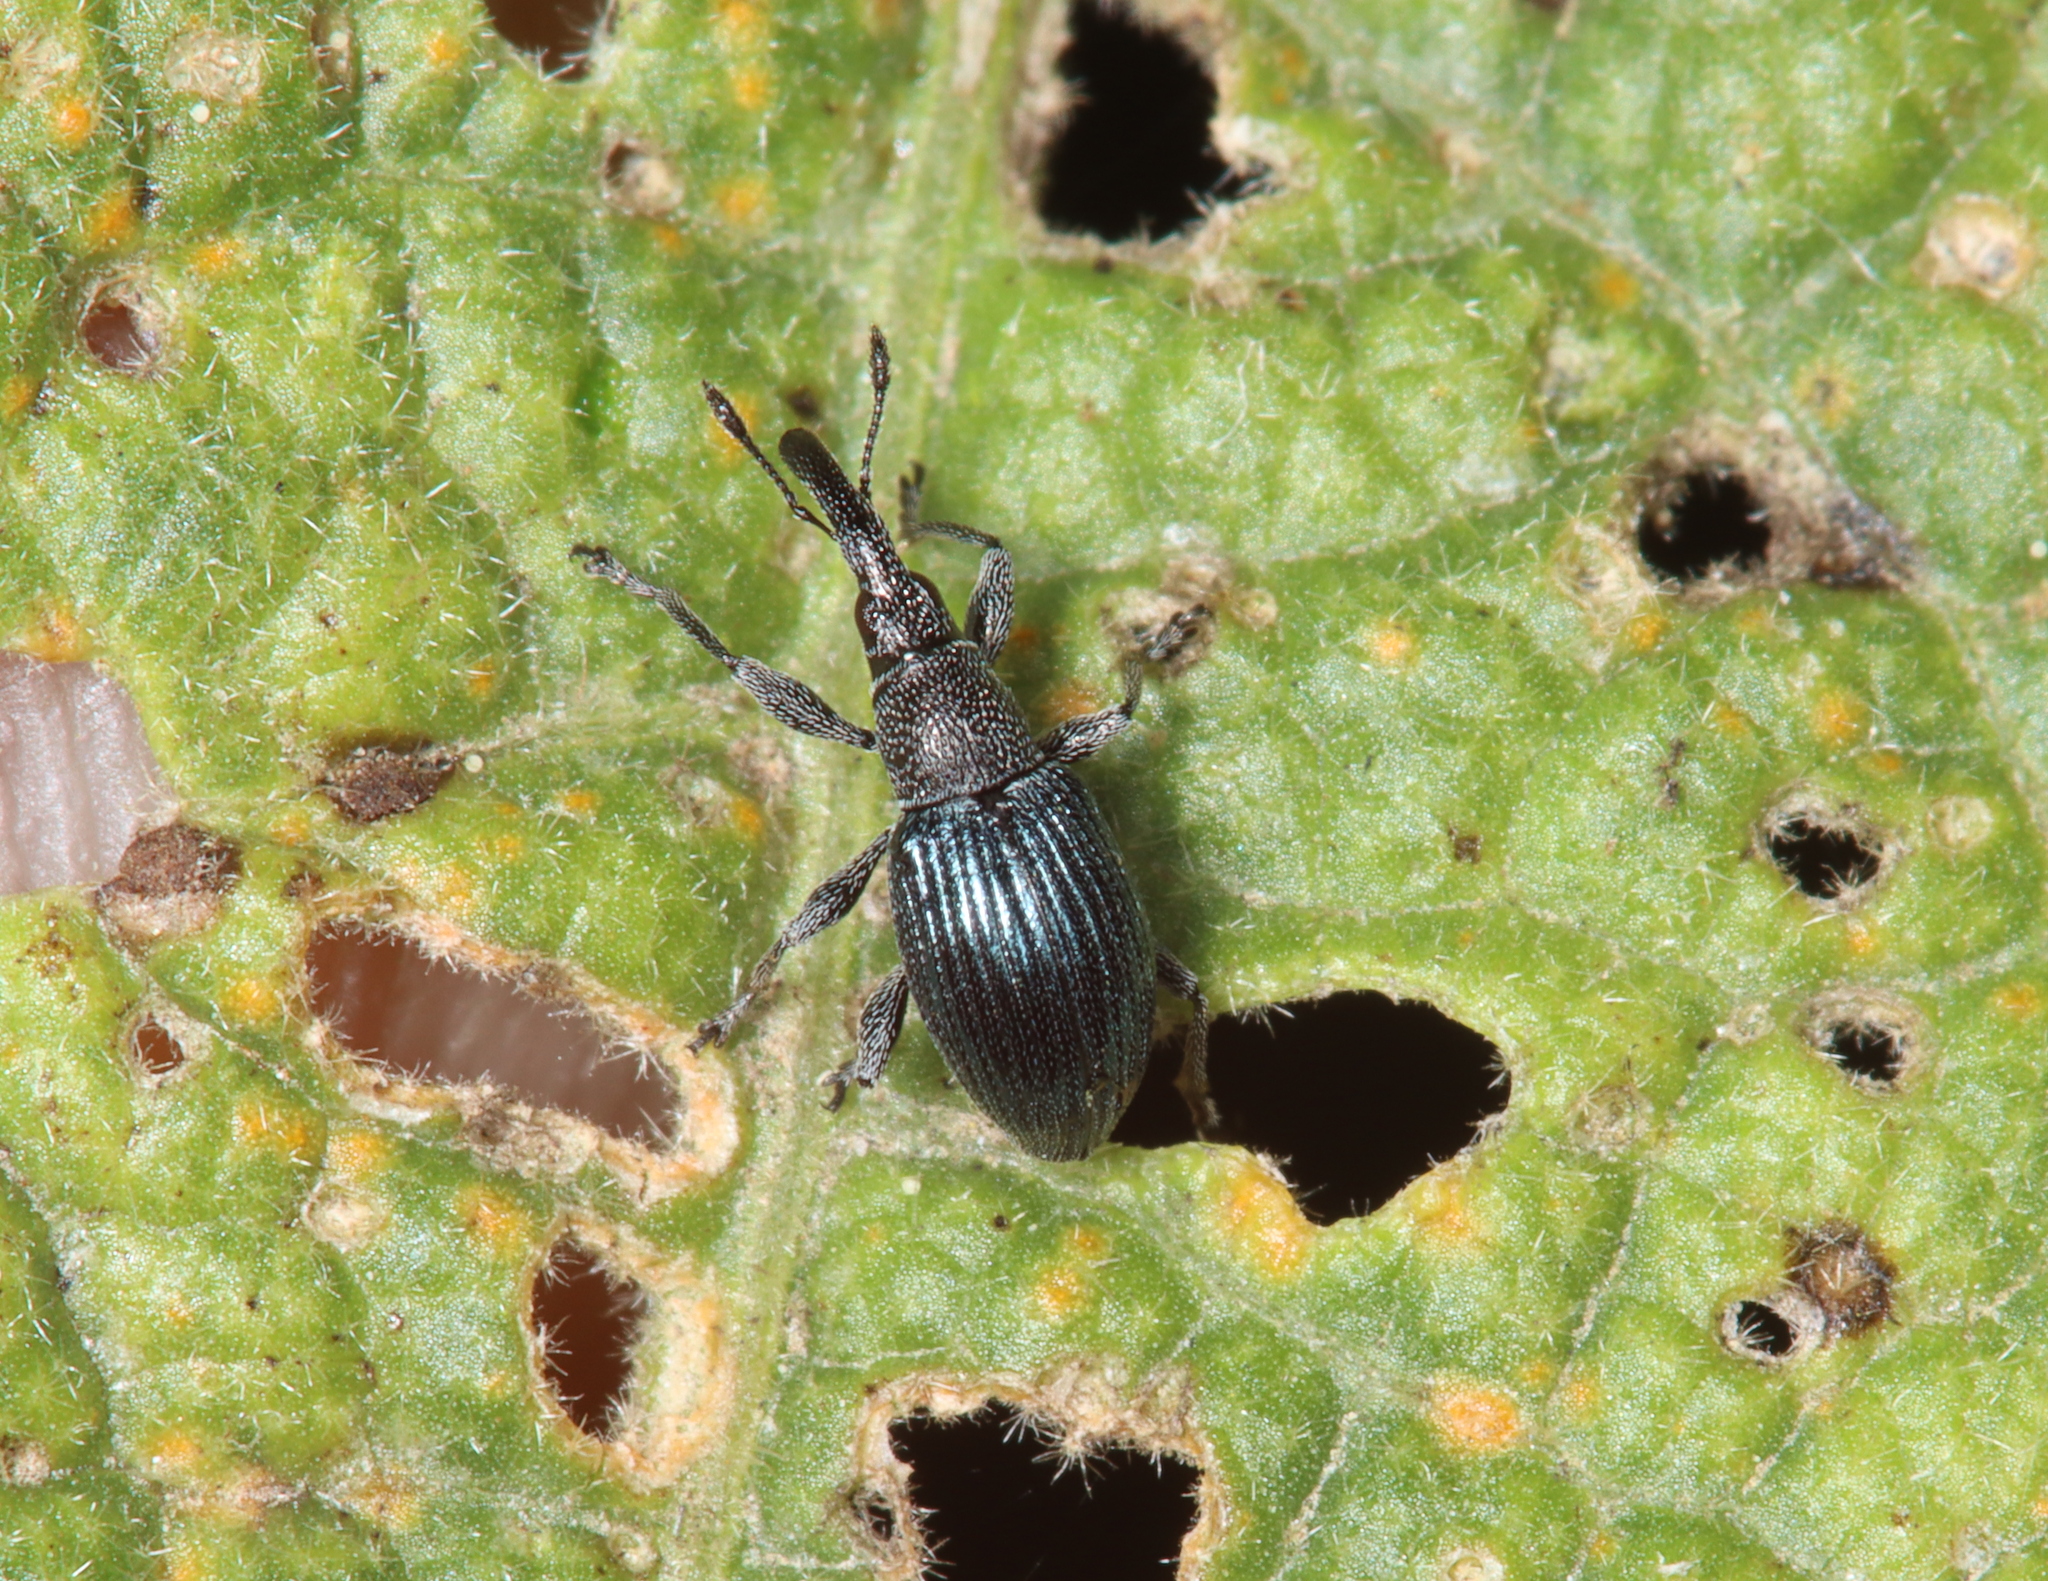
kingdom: Animalia
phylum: Arthropoda
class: Insecta
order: Coleoptera
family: Apionidae
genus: Aspidapion
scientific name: Aspidapion validum
